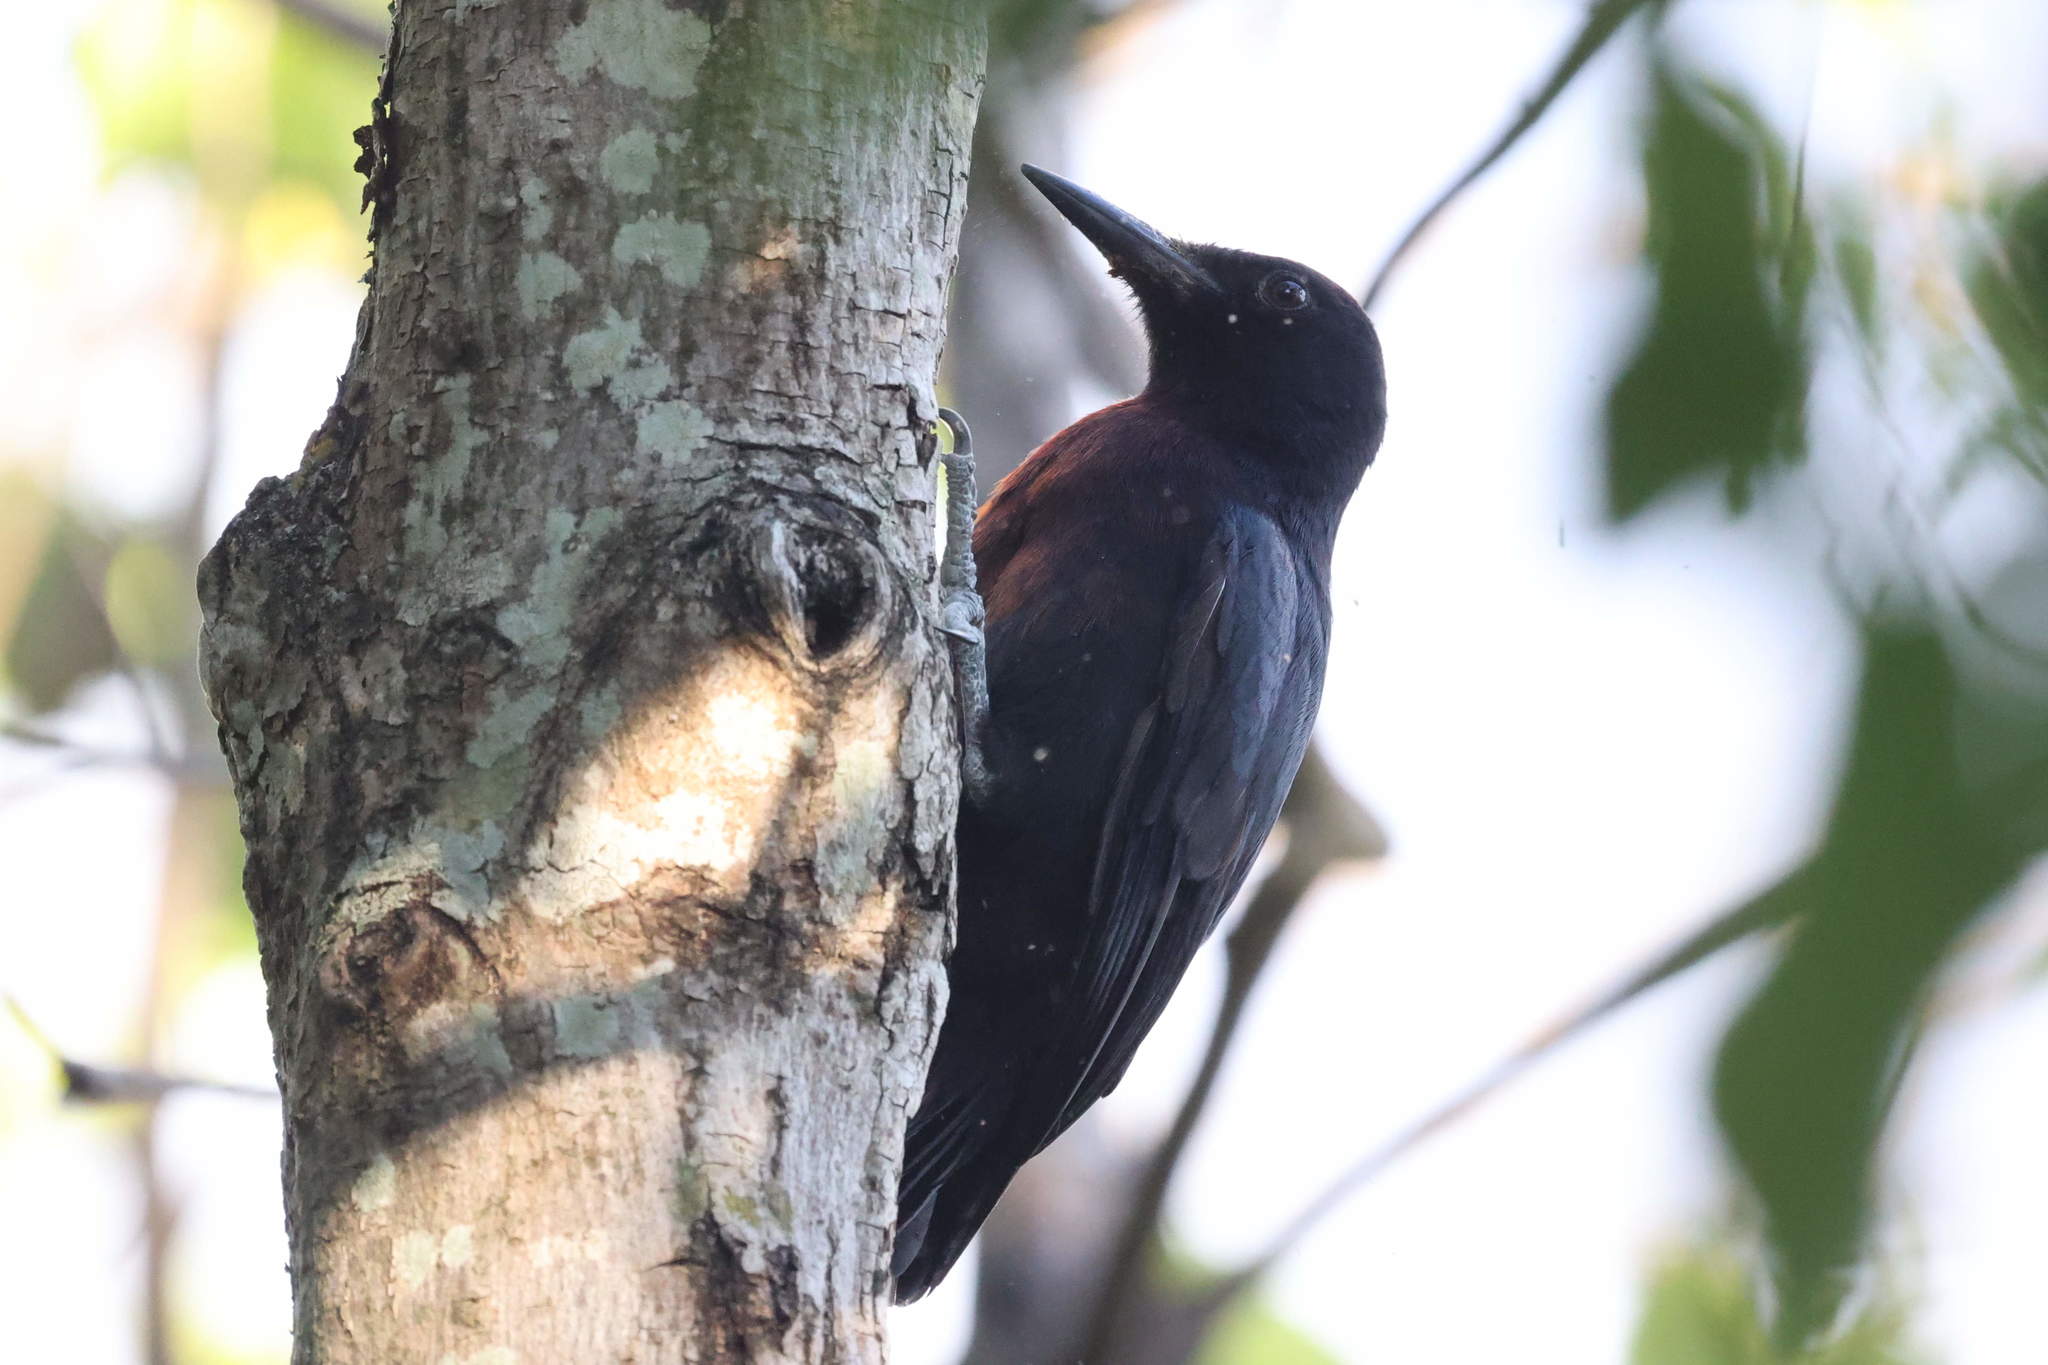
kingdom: Animalia
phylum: Chordata
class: Aves
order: Piciformes
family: Picidae
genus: Melanerpes
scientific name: Melanerpes herminieri
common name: Guadeloupe woodpecker
